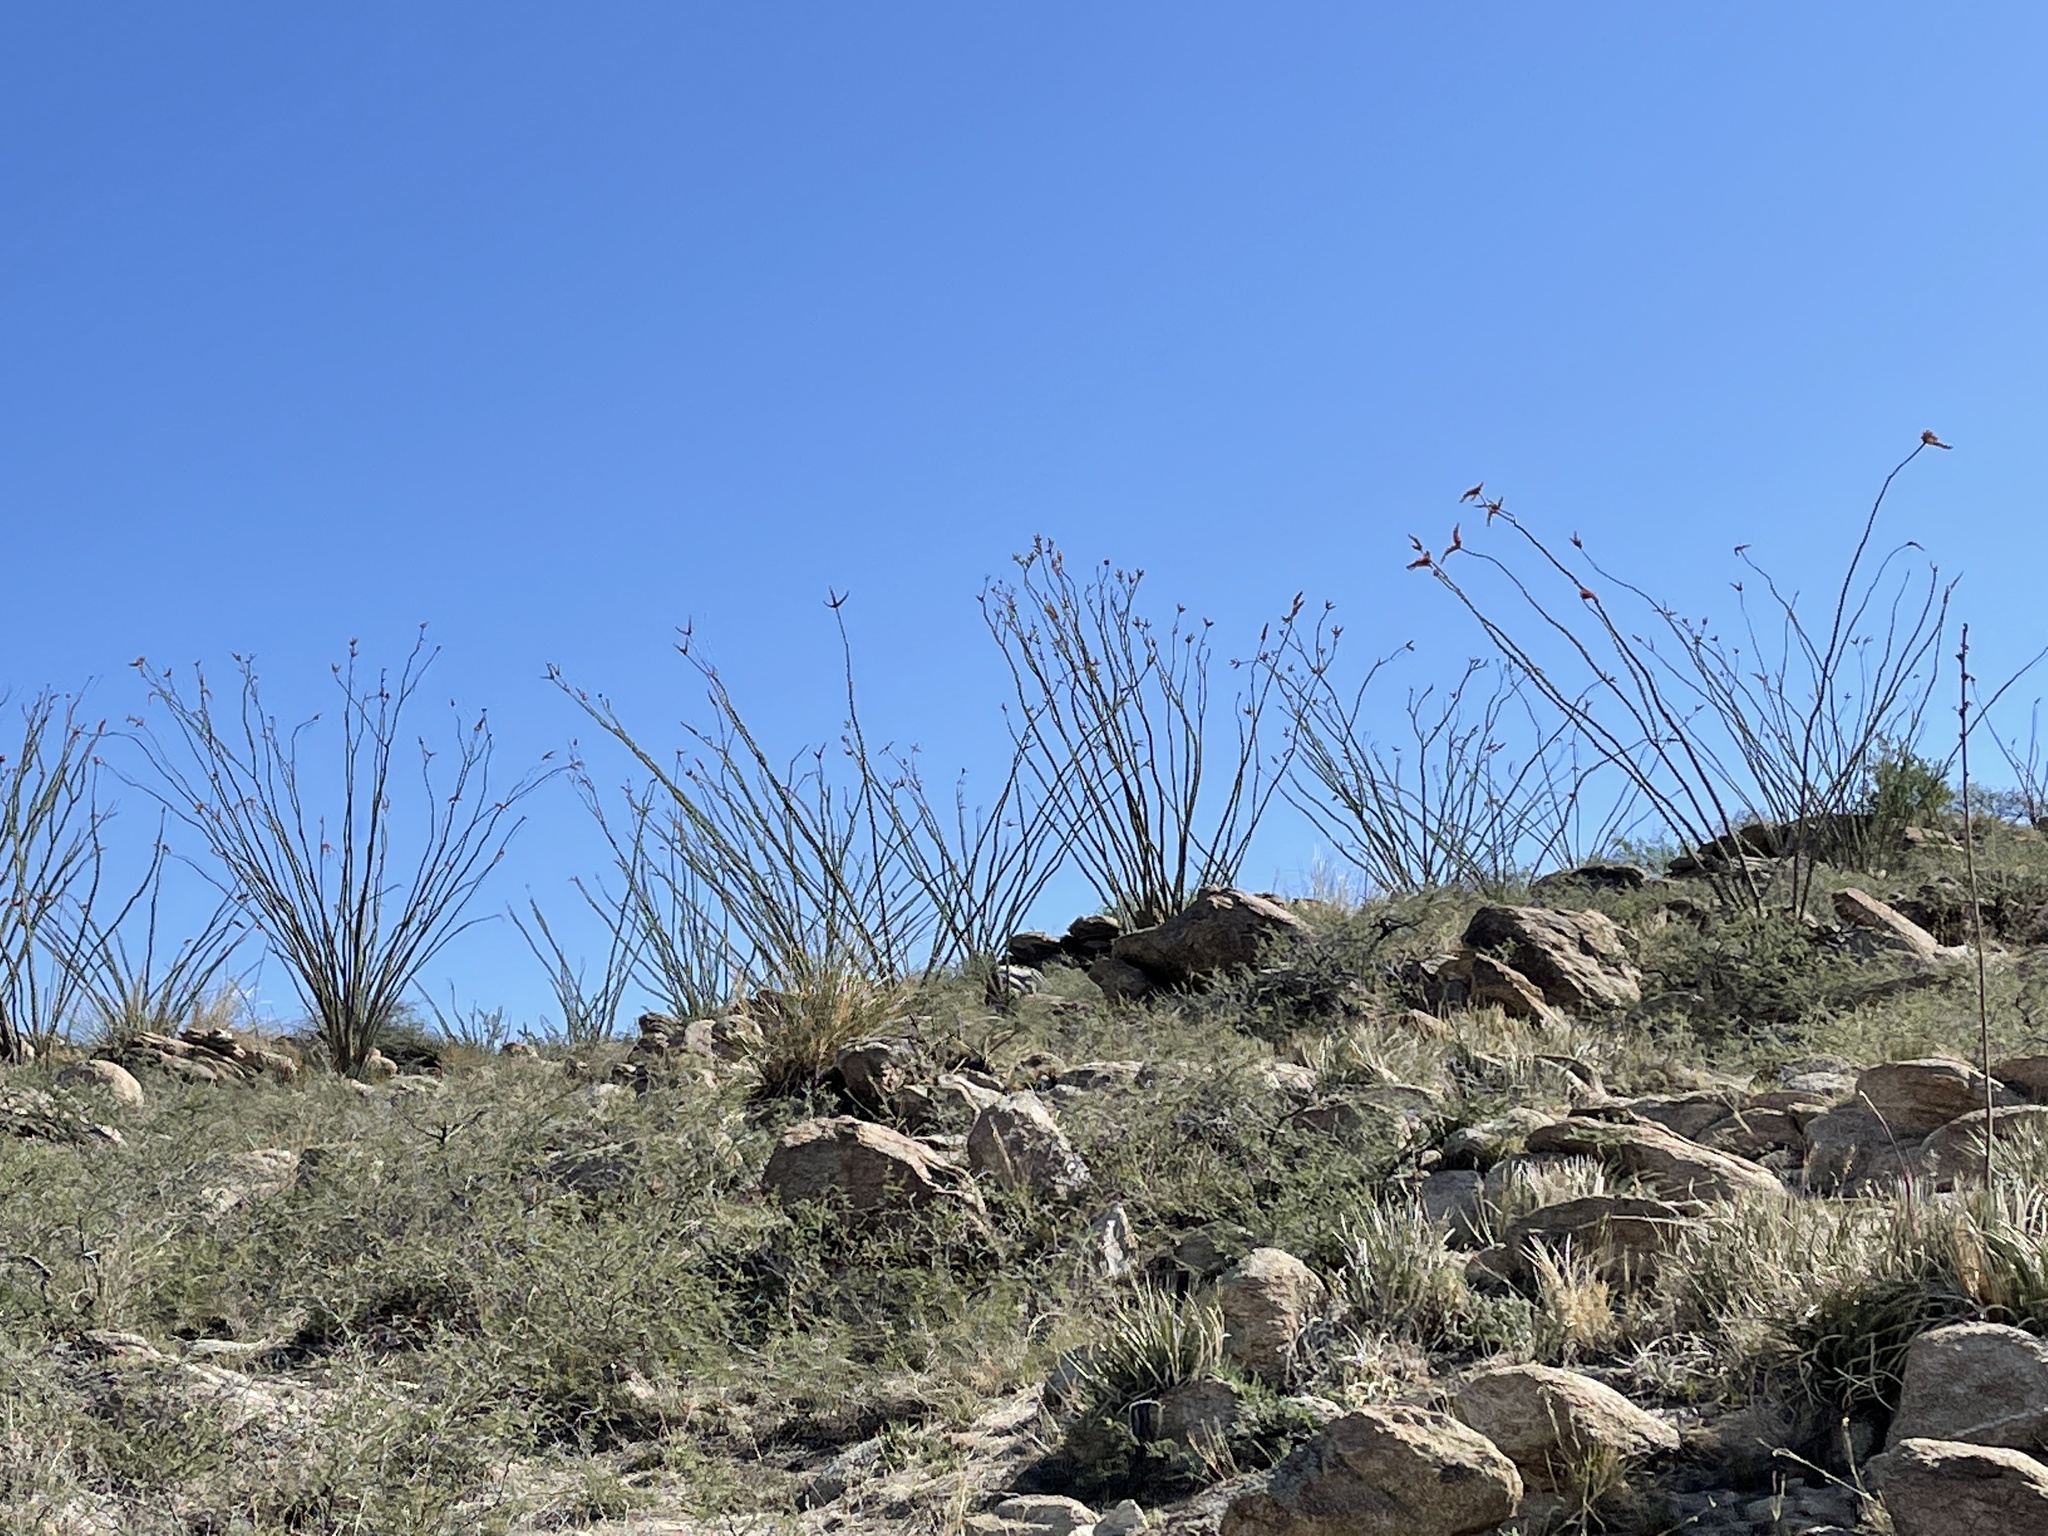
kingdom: Plantae
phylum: Tracheophyta
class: Magnoliopsida
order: Ericales
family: Fouquieriaceae
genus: Fouquieria
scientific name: Fouquieria splendens
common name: Vine-cactus
